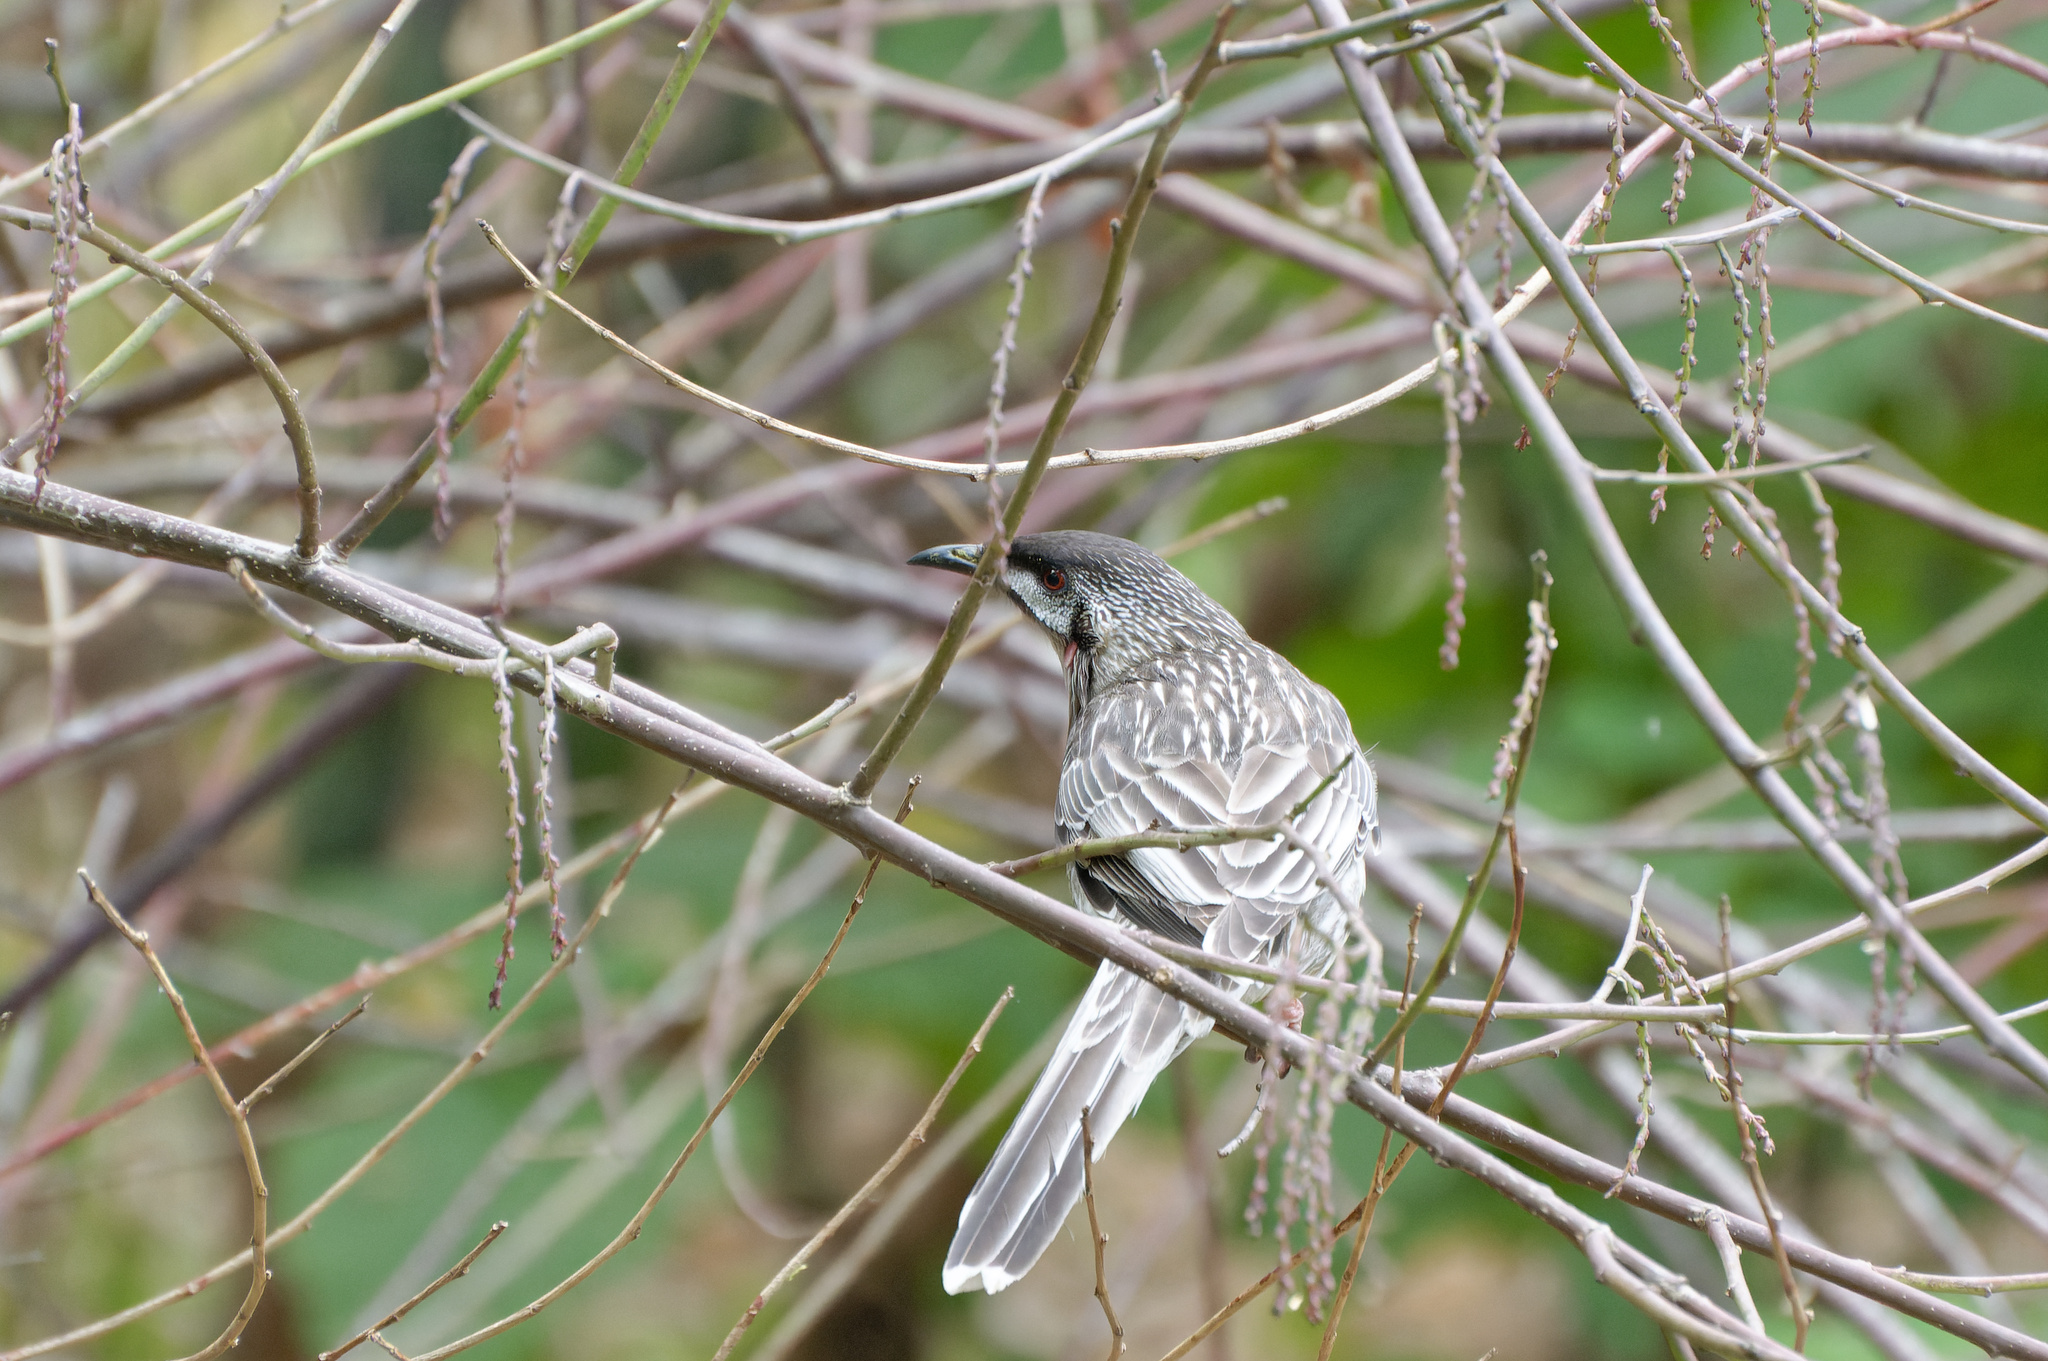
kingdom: Animalia
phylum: Chordata
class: Aves
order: Passeriformes
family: Meliphagidae
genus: Anthochaera
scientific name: Anthochaera carunculata
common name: Red wattlebird
